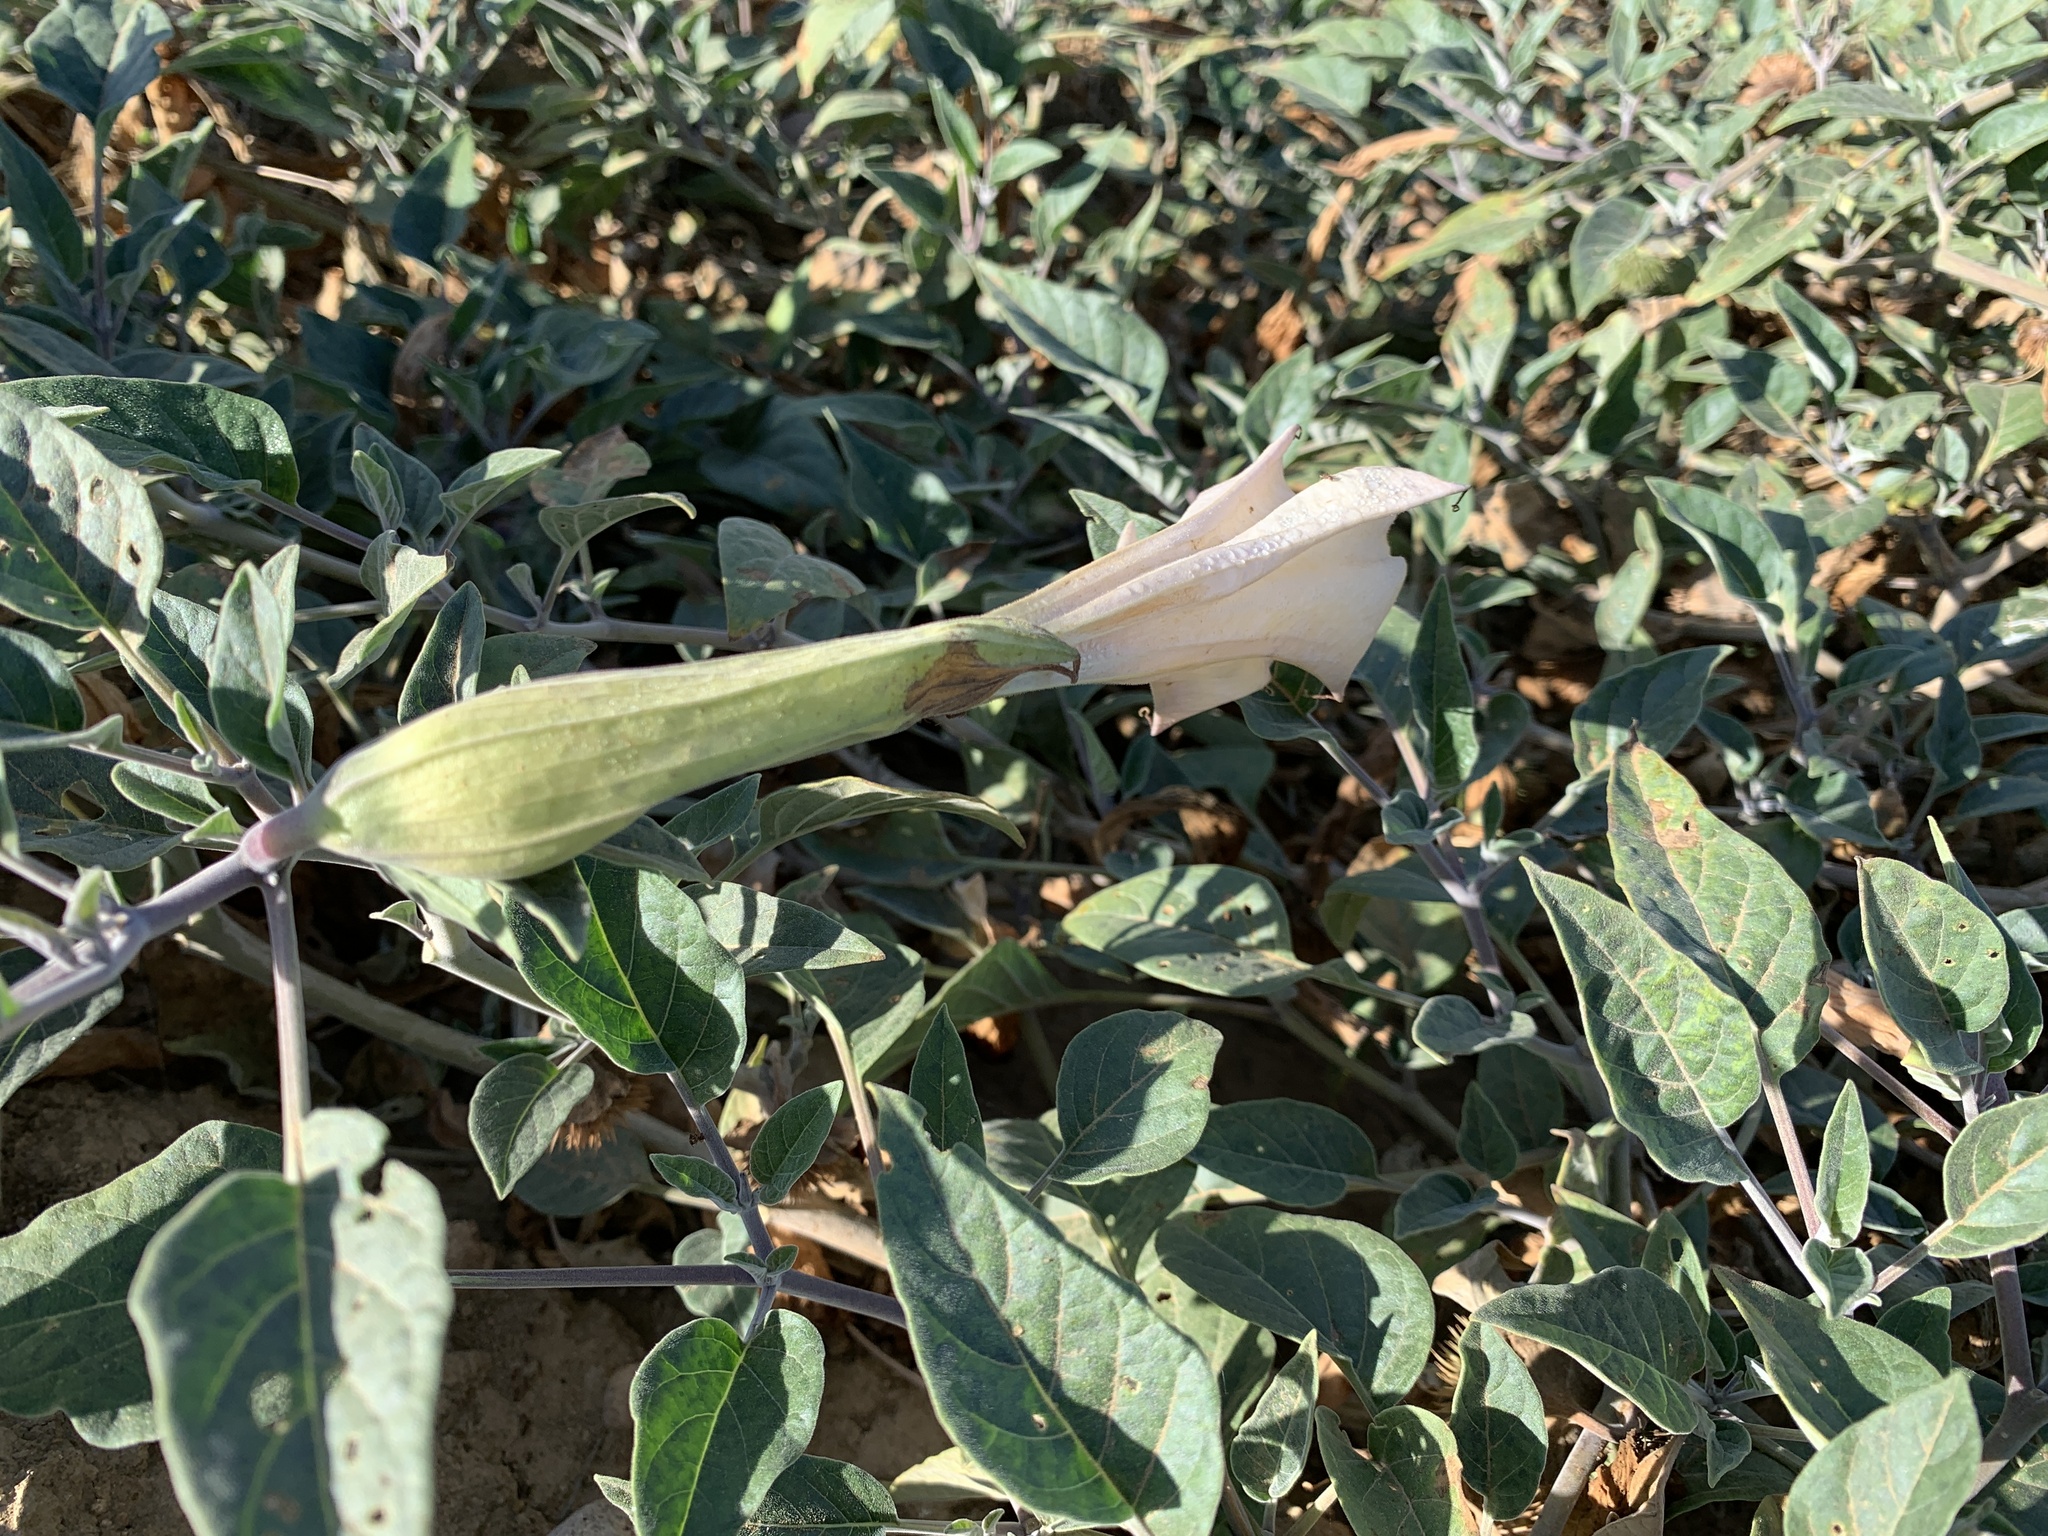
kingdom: Plantae
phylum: Tracheophyta
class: Magnoliopsida
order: Solanales
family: Solanaceae
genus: Datura
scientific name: Datura wrightii
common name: Sacred thorn-apple
